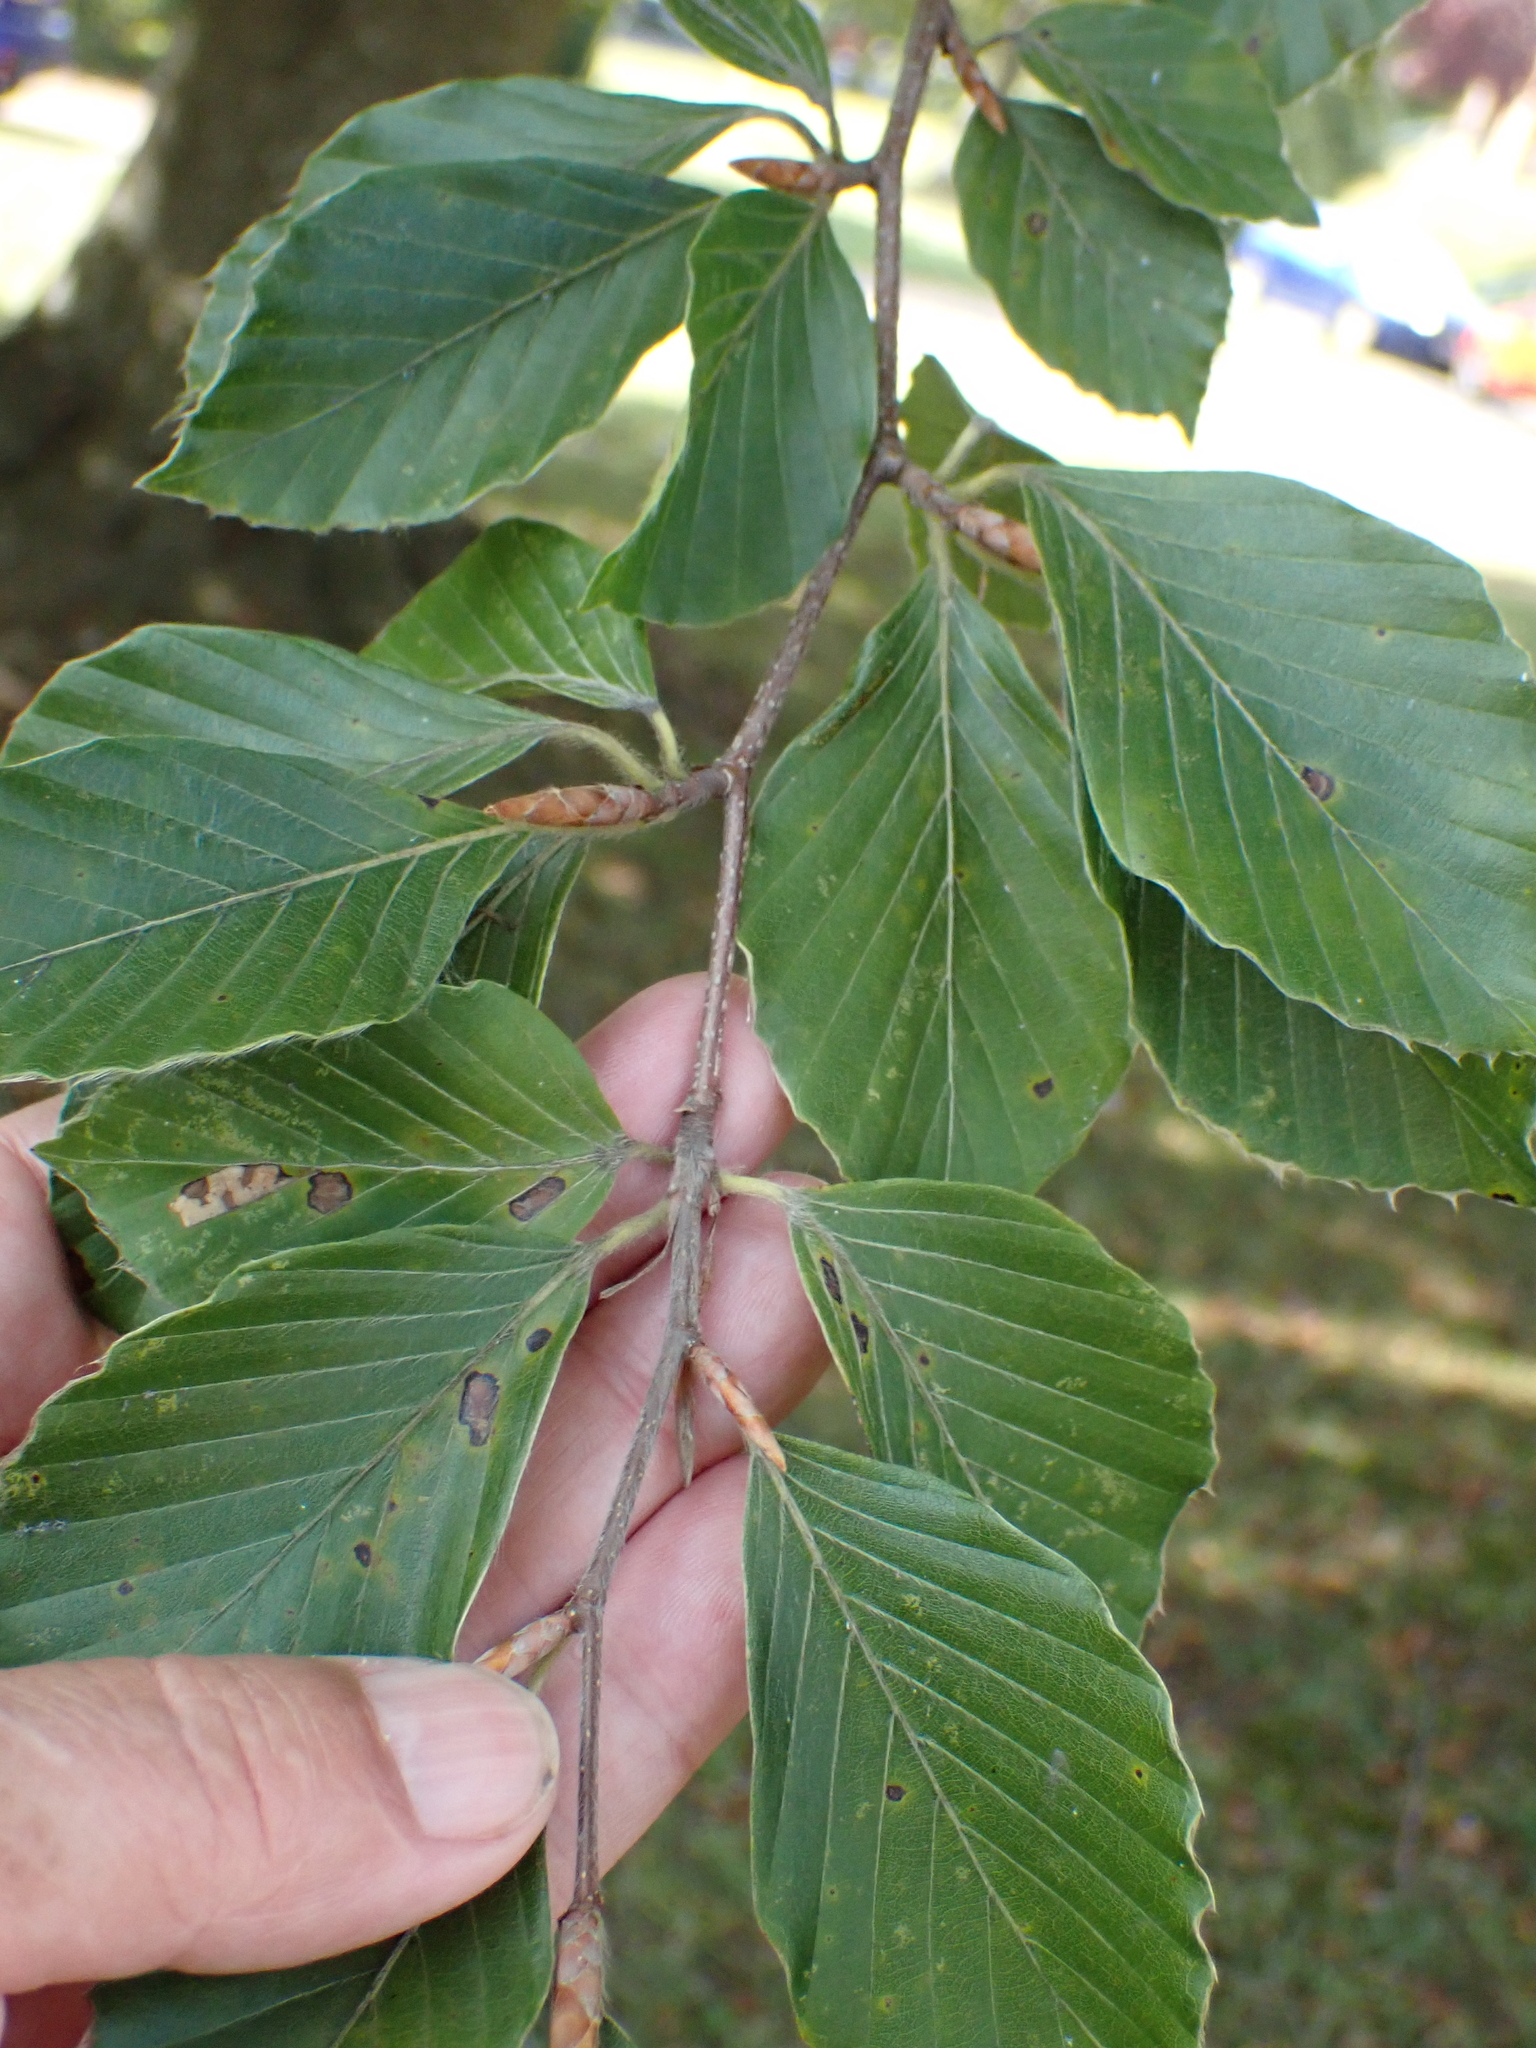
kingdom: Plantae
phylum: Tracheophyta
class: Magnoliopsida
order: Fagales
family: Fagaceae
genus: Fagus
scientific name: Fagus sylvatica
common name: Beech
